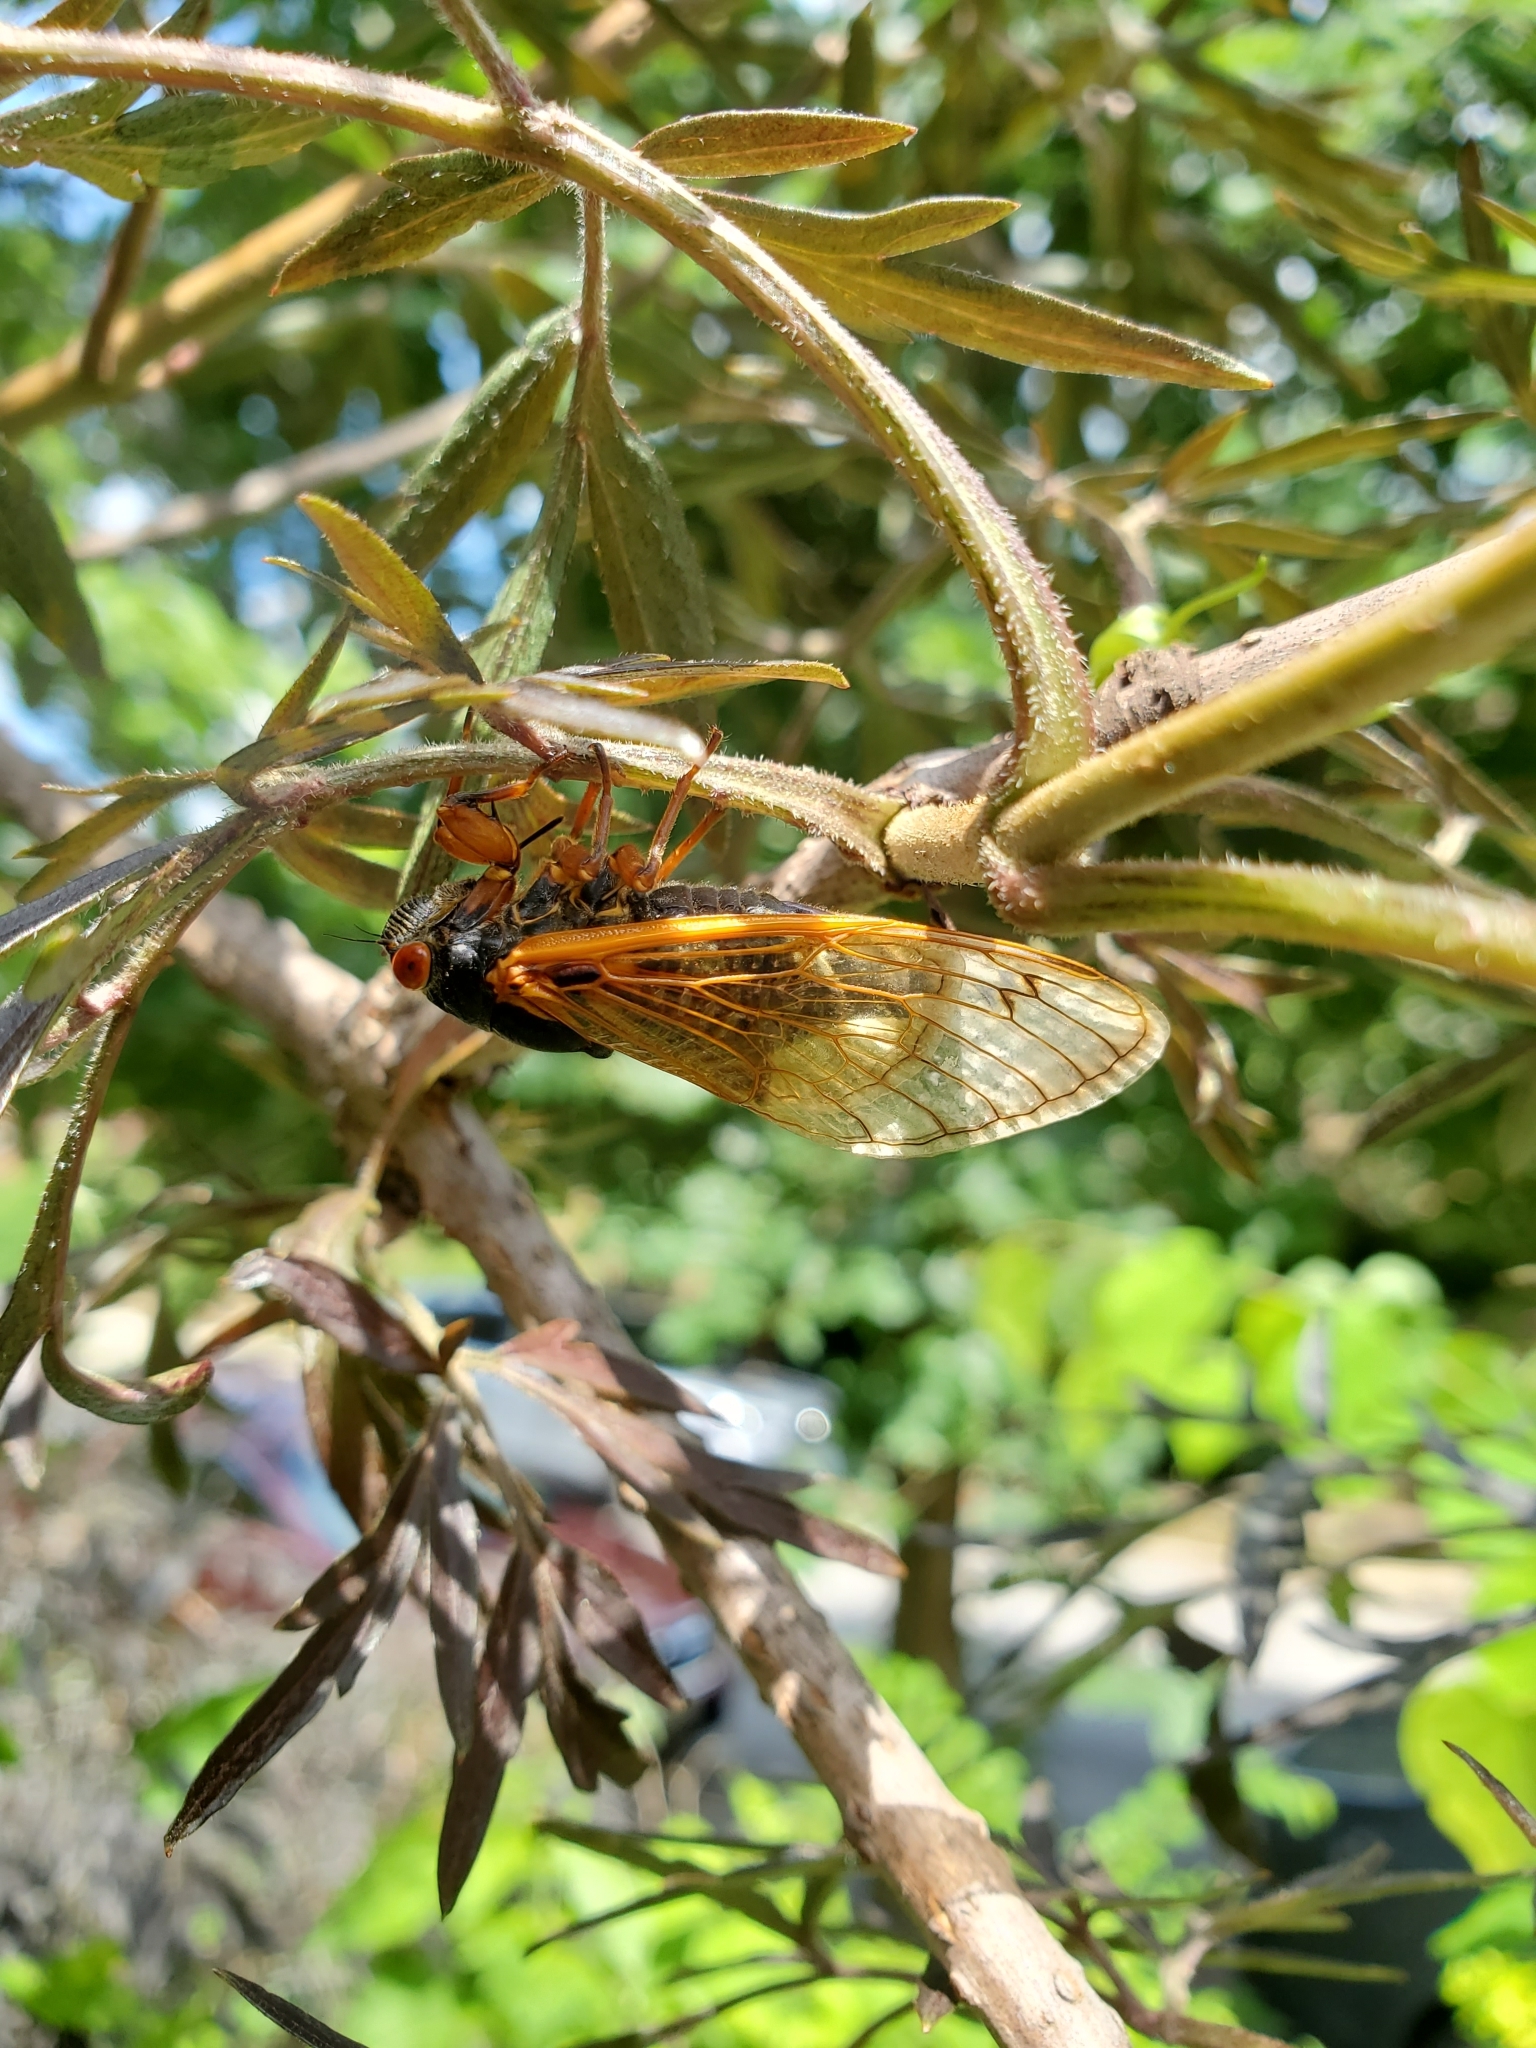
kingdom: Animalia
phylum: Arthropoda
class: Insecta
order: Hemiptera
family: Cicadidae
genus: Magicicada
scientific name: Magicicada cassini
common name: Cassin's 17-year cicada
